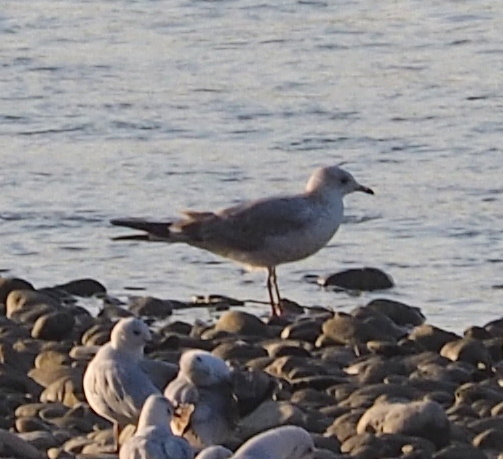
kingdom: Animalia
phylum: Chordata
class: Aves
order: Charadriiformes
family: Laridae
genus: Larus
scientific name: Larus canus
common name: Mew gull
